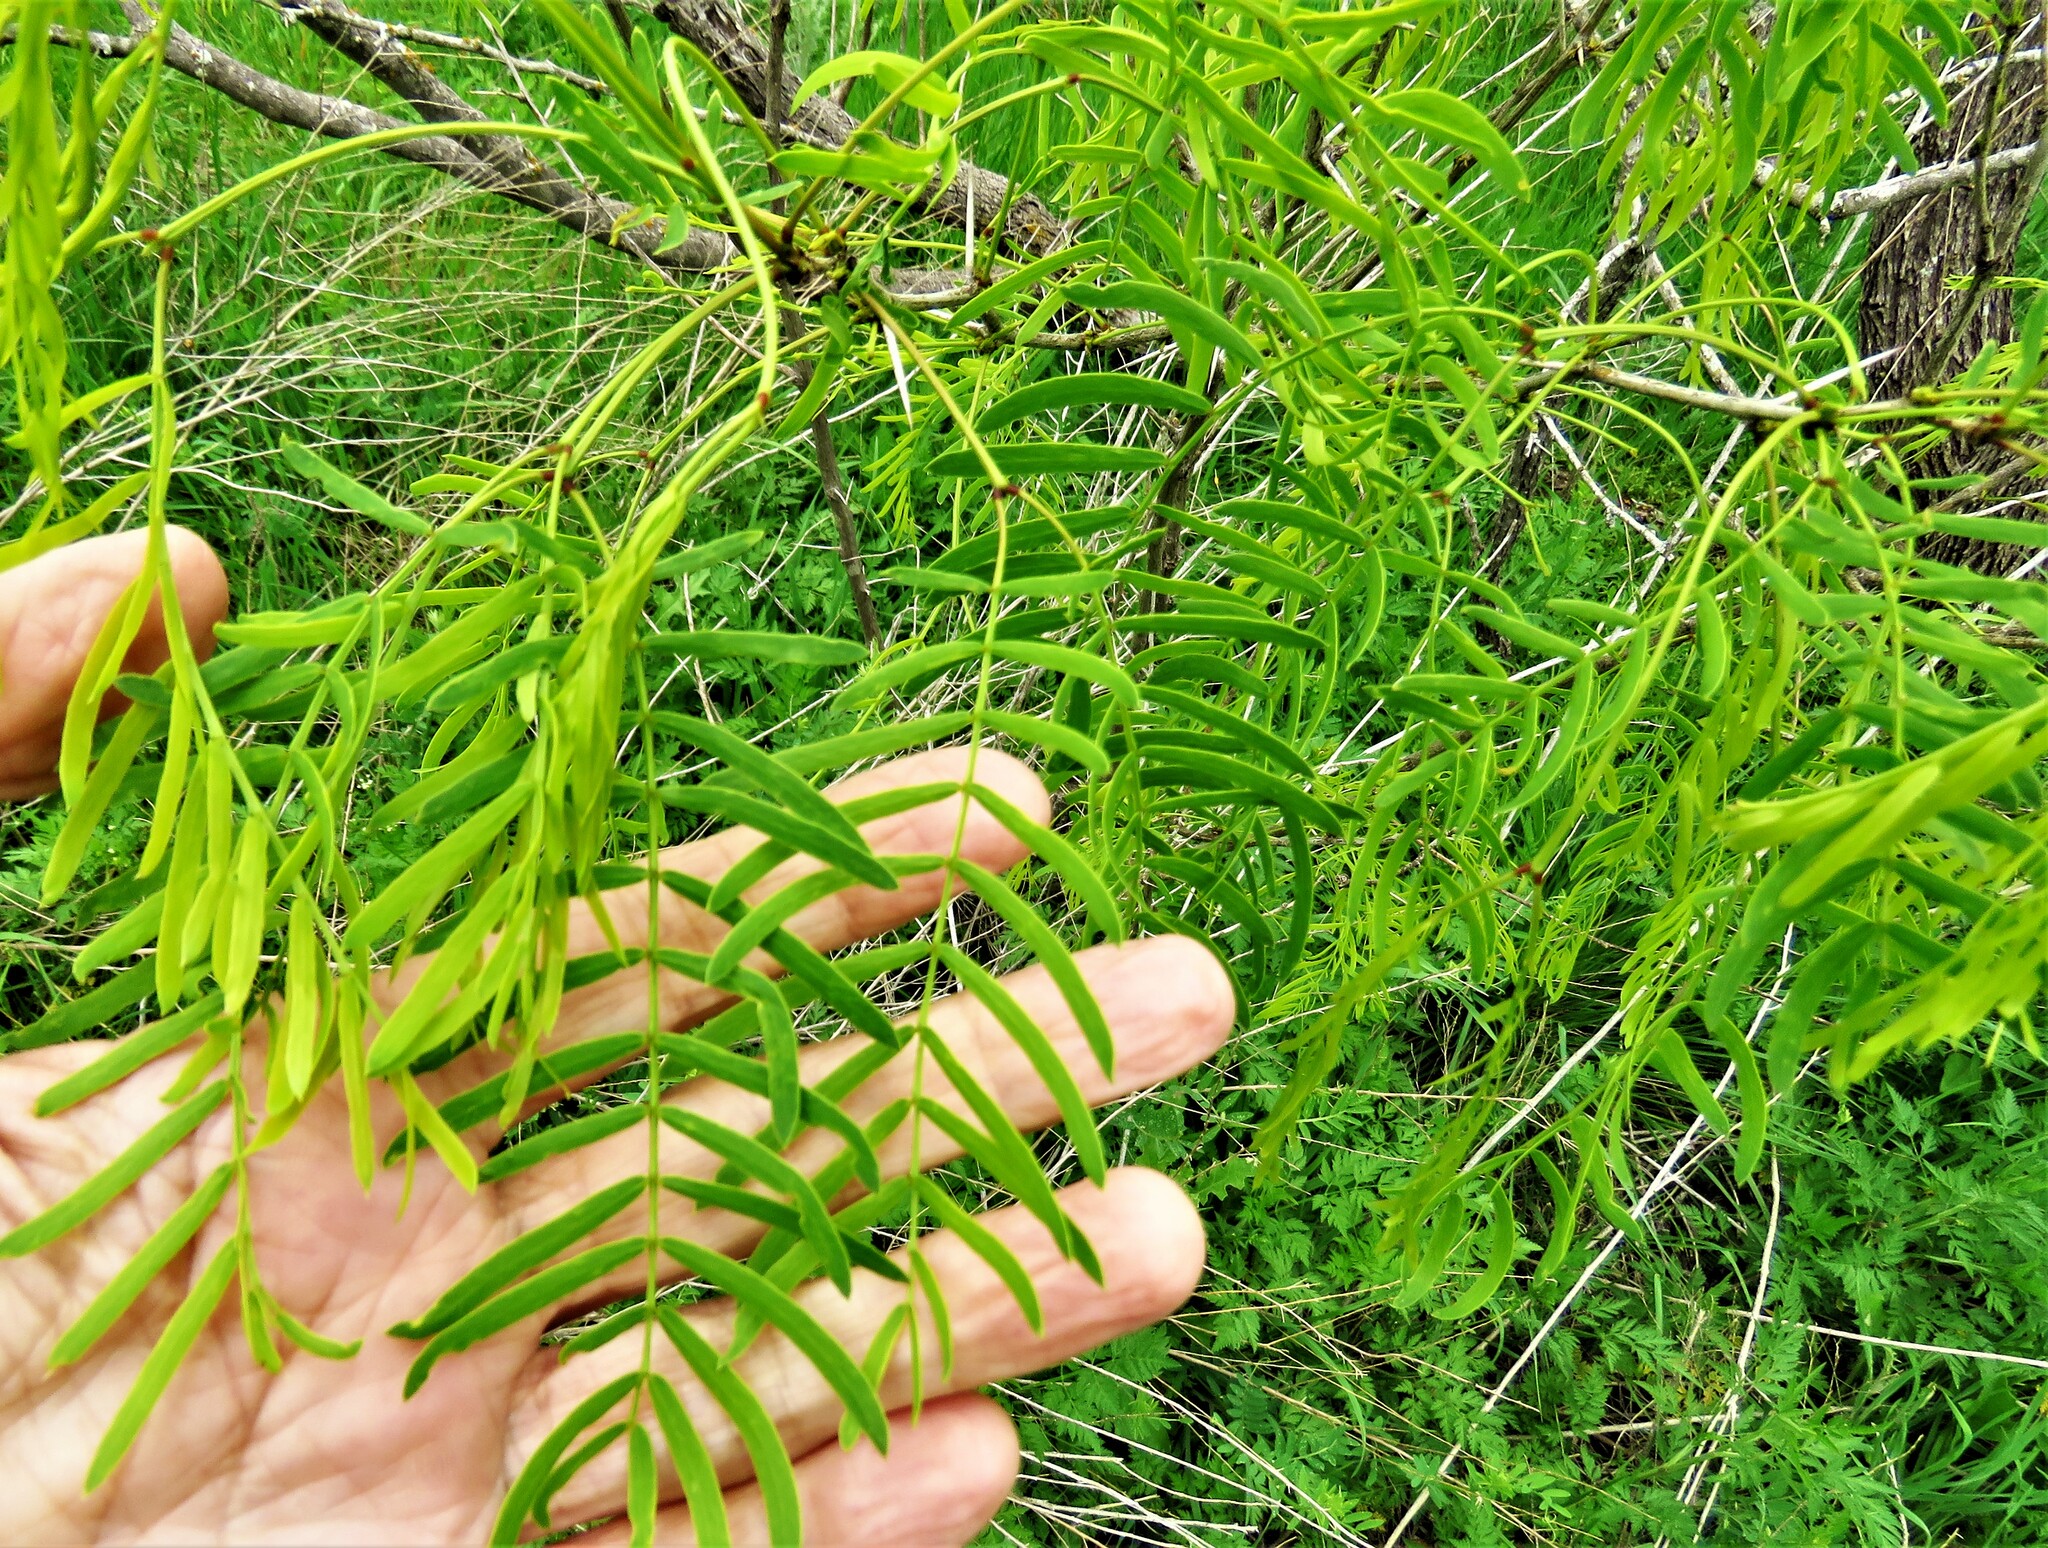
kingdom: Plantae
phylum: Tracheophyta
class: Magnoliopsida
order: Fabales
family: Fabaceae
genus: Prosopis
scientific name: Prosopis glandulosa
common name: Honey mesquite
